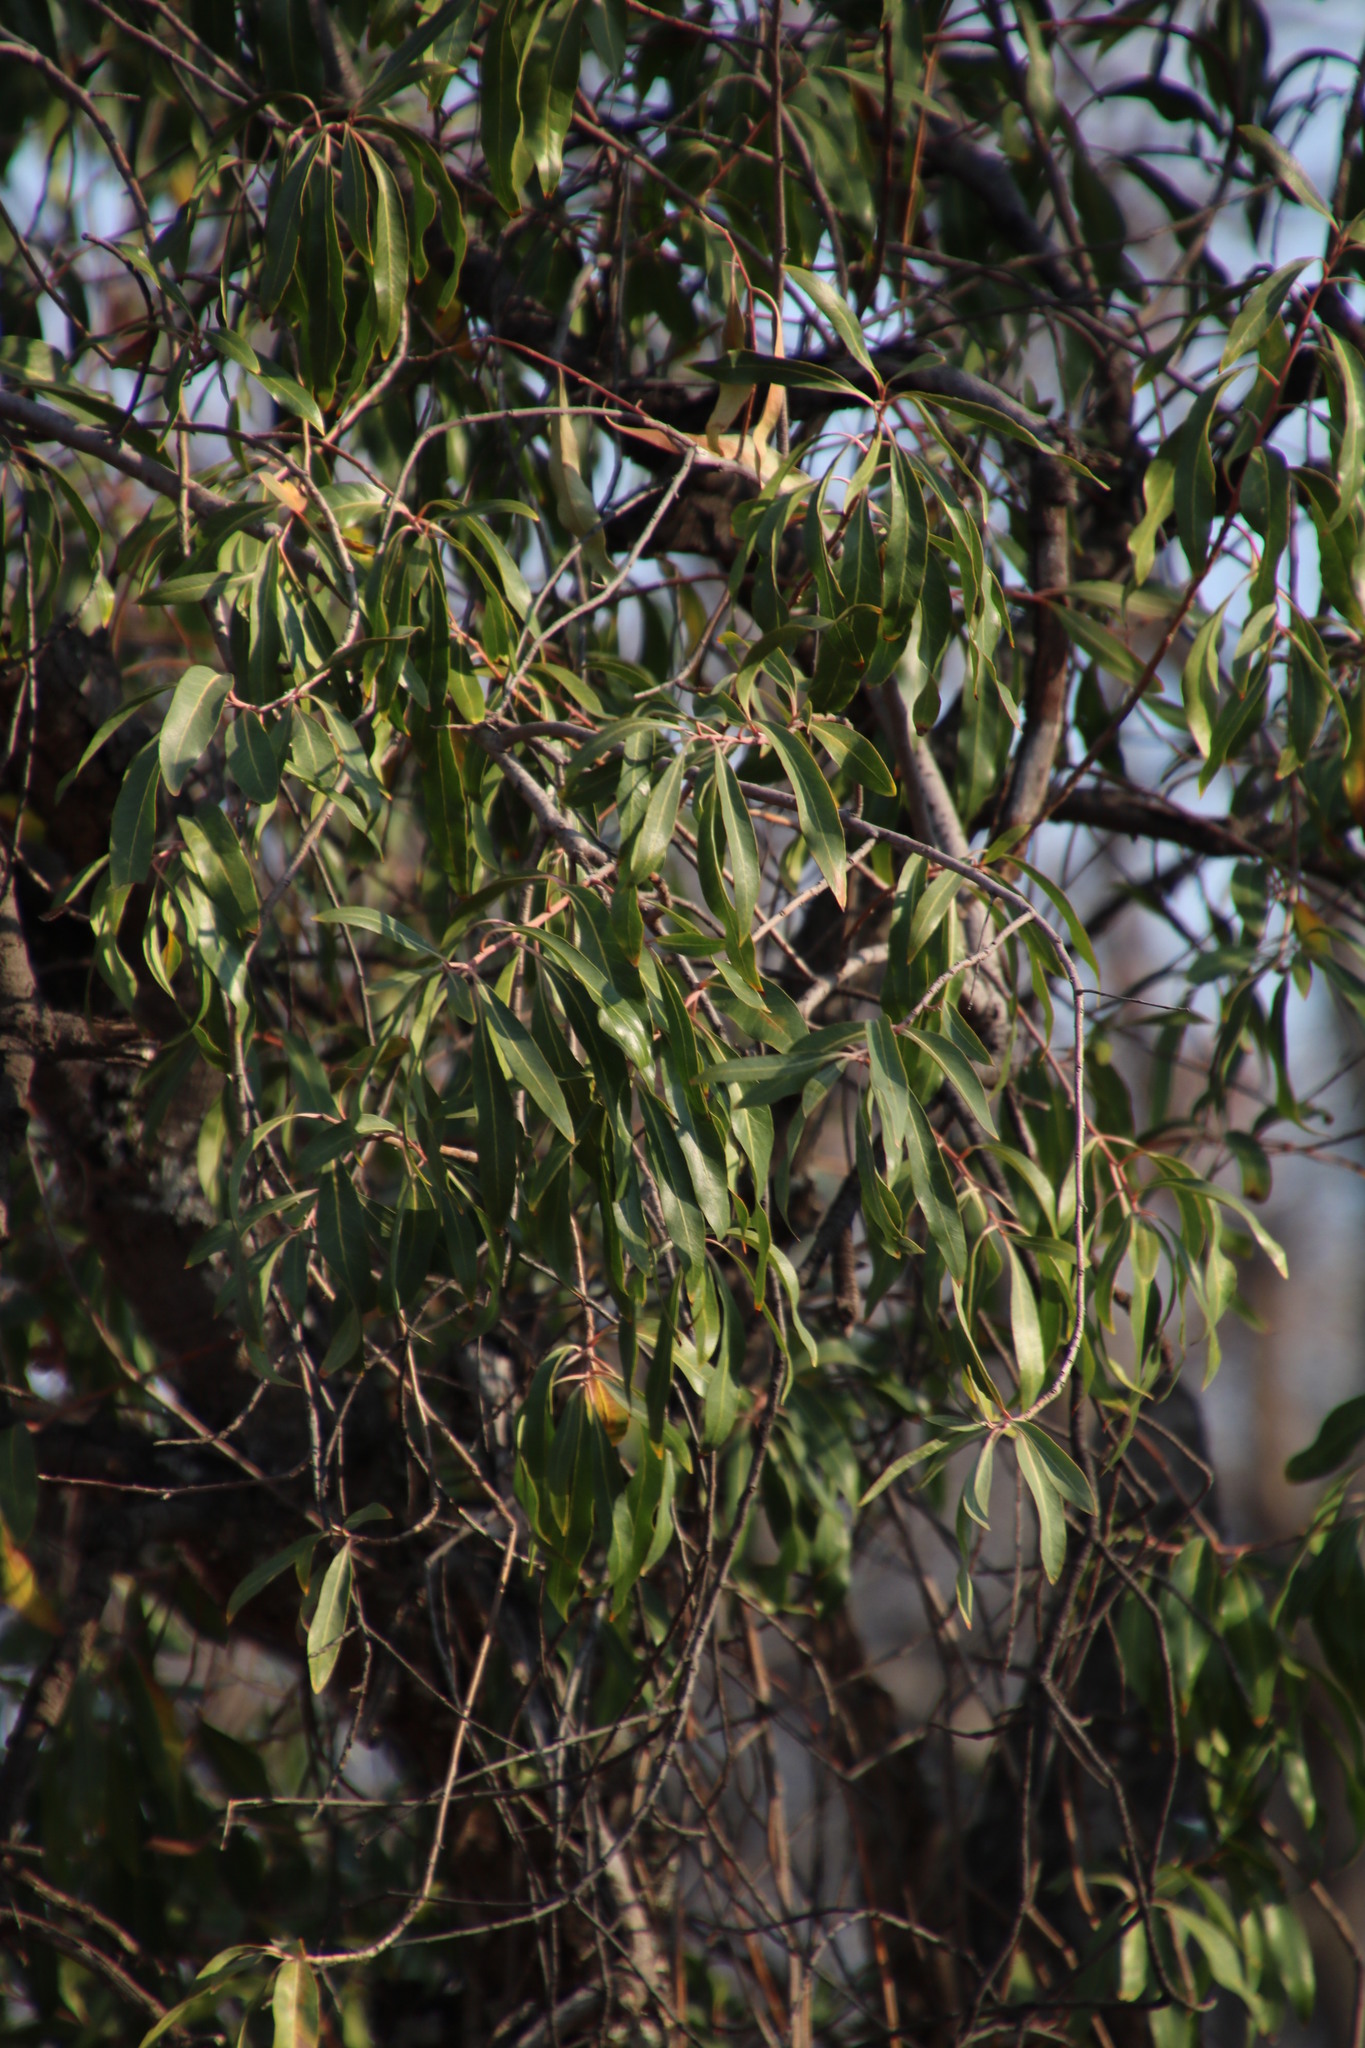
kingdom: Plantae
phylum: Tracheophyta
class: Magnoliopsida
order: Proteales
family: Proteaceae
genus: Faurea
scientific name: Faurea saligna
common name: African bean
